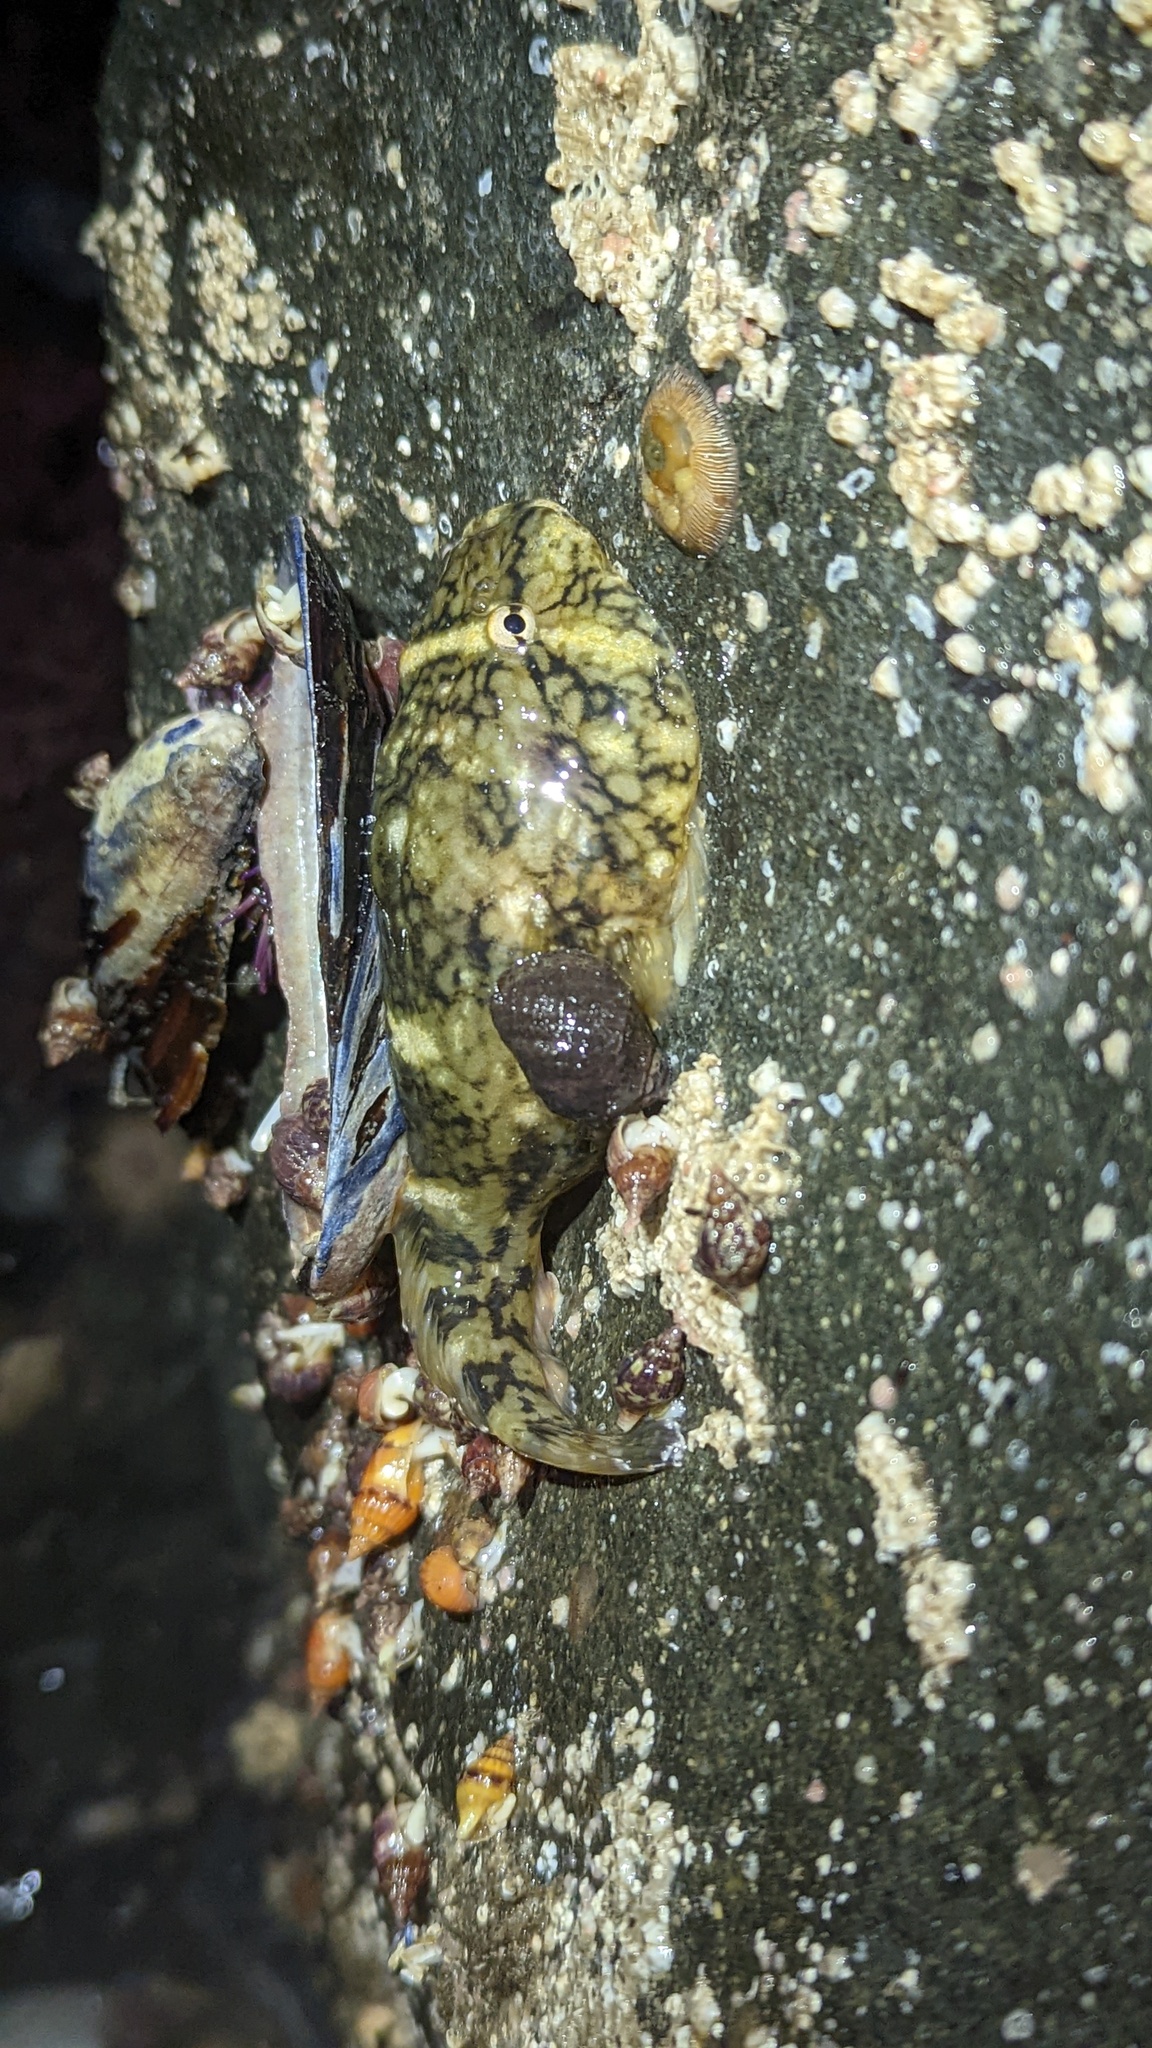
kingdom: Animalia
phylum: Chordata
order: Gobiesociformes
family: Gobiesocidae
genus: Gobiesox
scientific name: Gobiesox maeandricus
